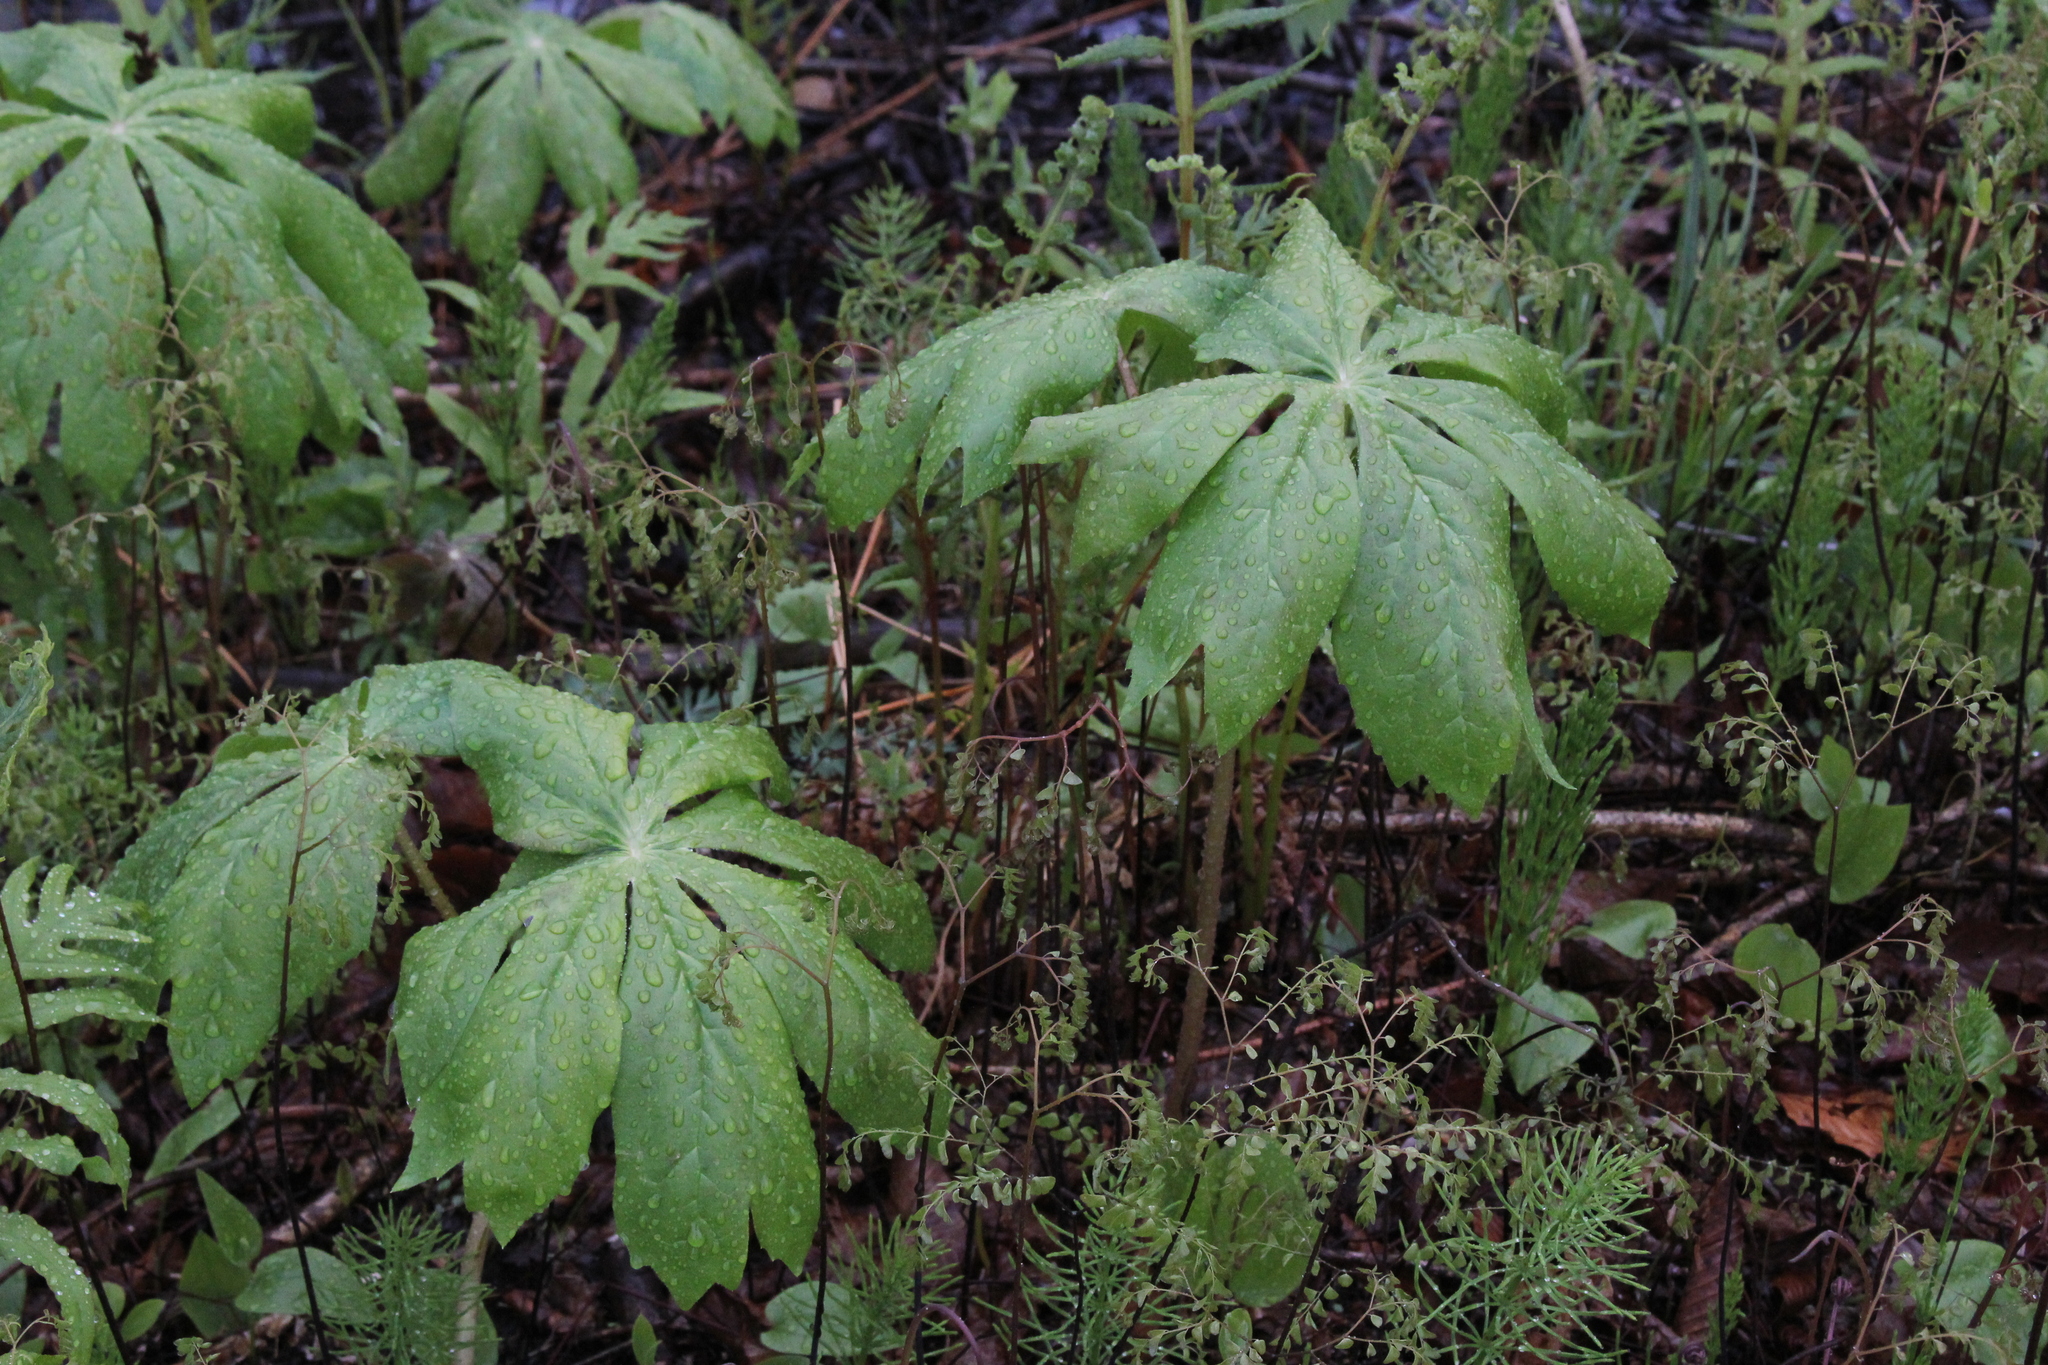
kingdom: Plantae
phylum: Tracheophyta
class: Magnoliopsida
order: Ranunculales
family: Berberidaceae
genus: Podophyllum
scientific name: Podophyllum peltatum
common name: Wild mandrake
